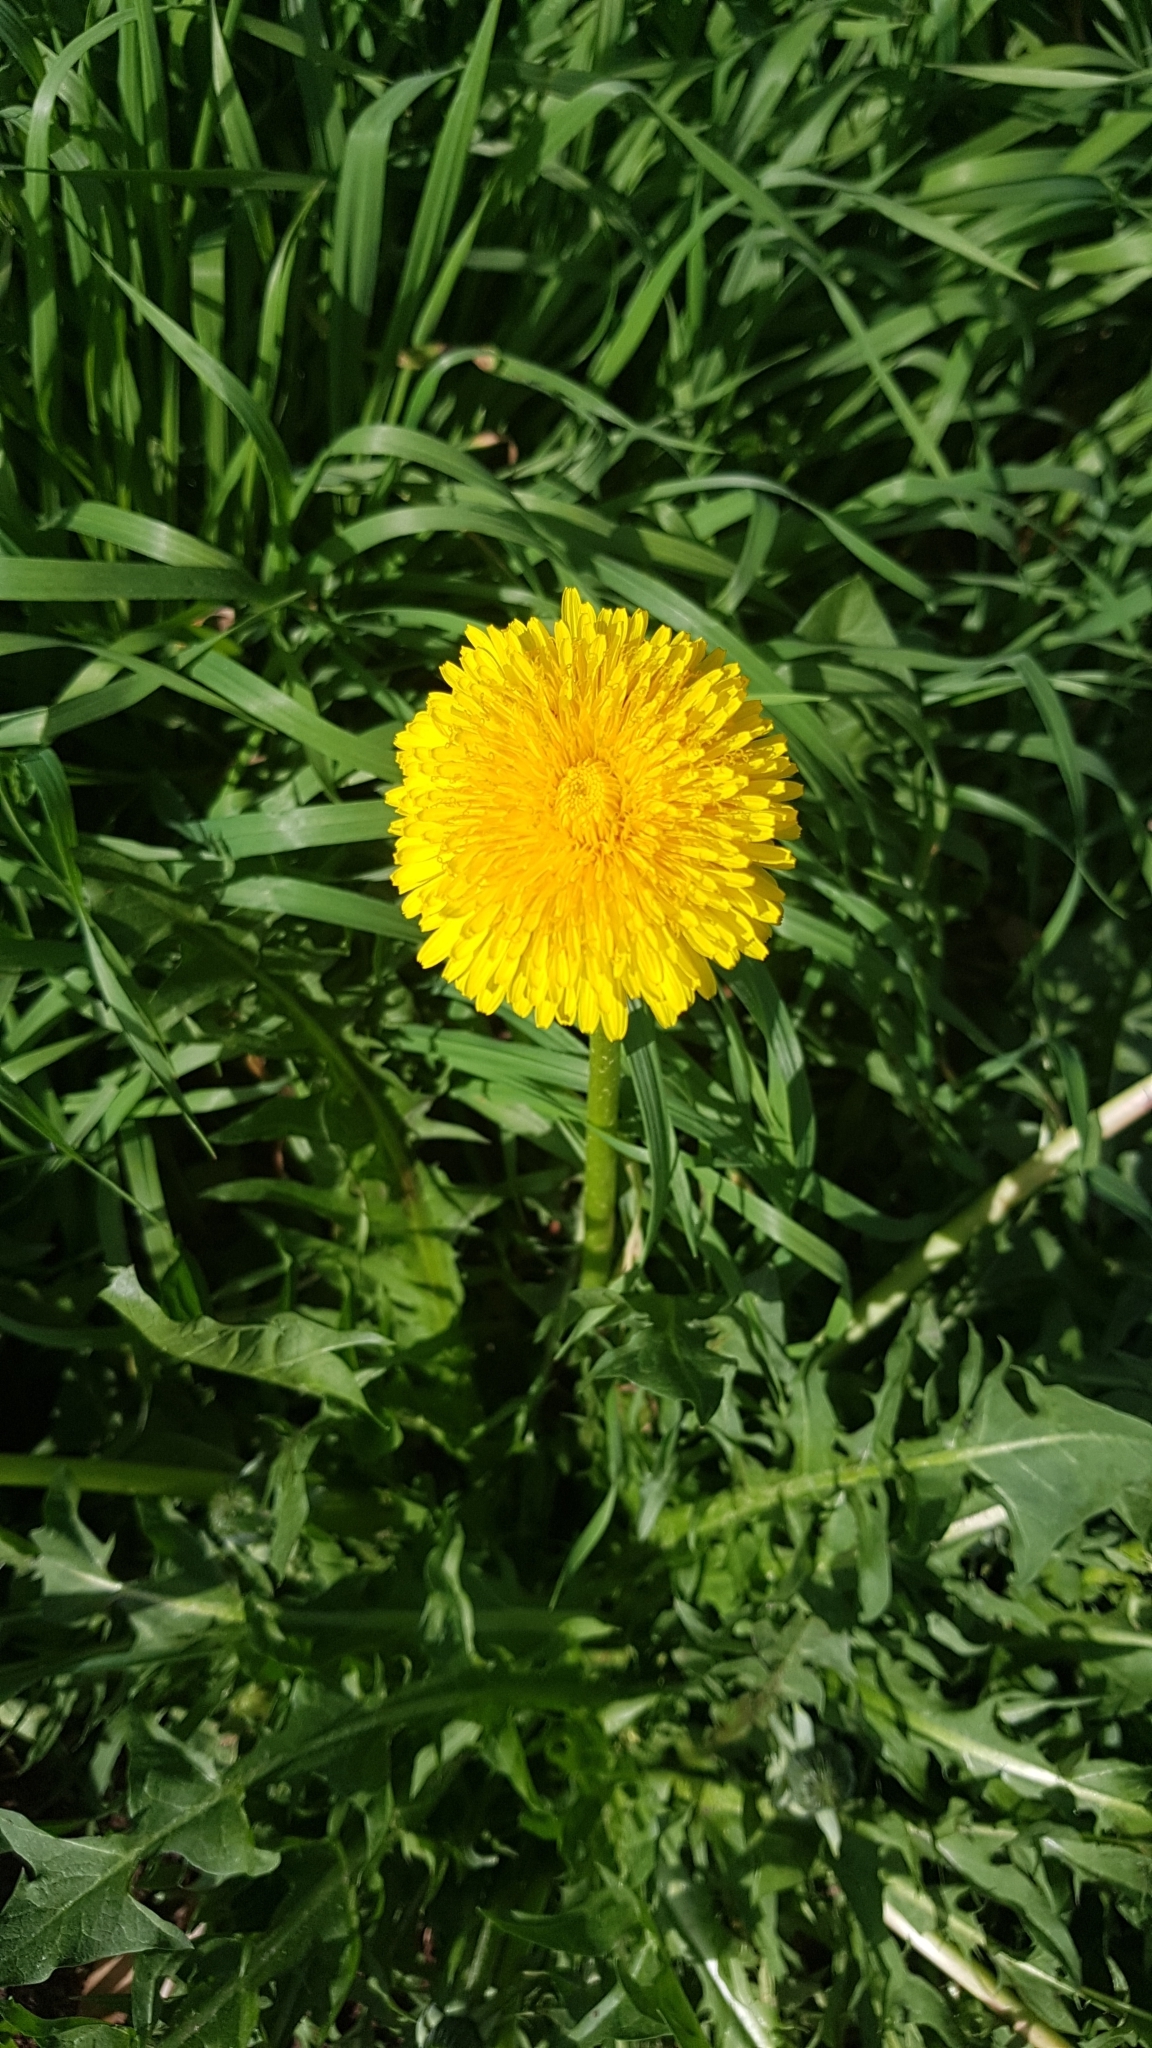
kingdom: Plantae
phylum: Tracheophyta
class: Magnoliopsida
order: Asterales
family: Asteraceae
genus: Taraxacum
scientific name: Taraxacum officinale
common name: Common dandelion
